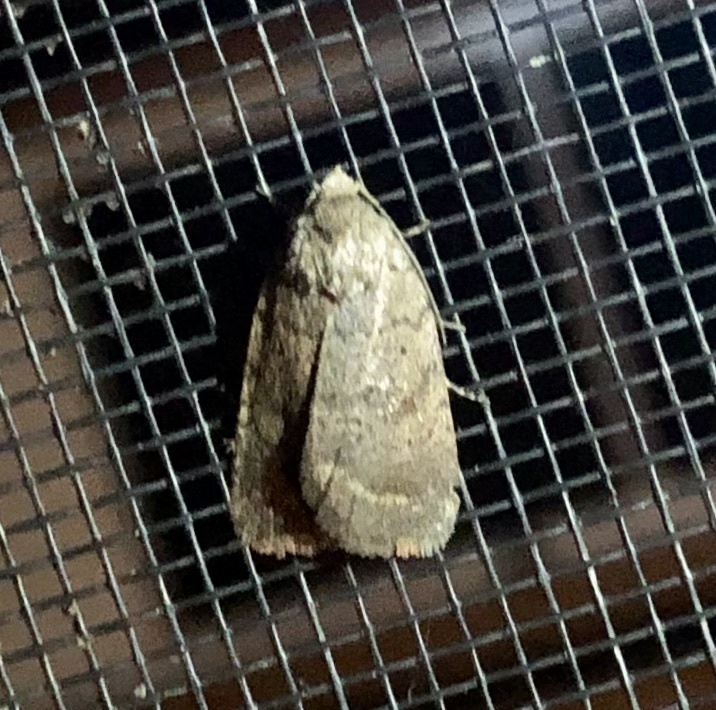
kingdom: Animalia
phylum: Arthropoda
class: Insecta
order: Lepidoptera
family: Noctuidae
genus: Athetis
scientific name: Athetis tarda
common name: Slowpoke moth
